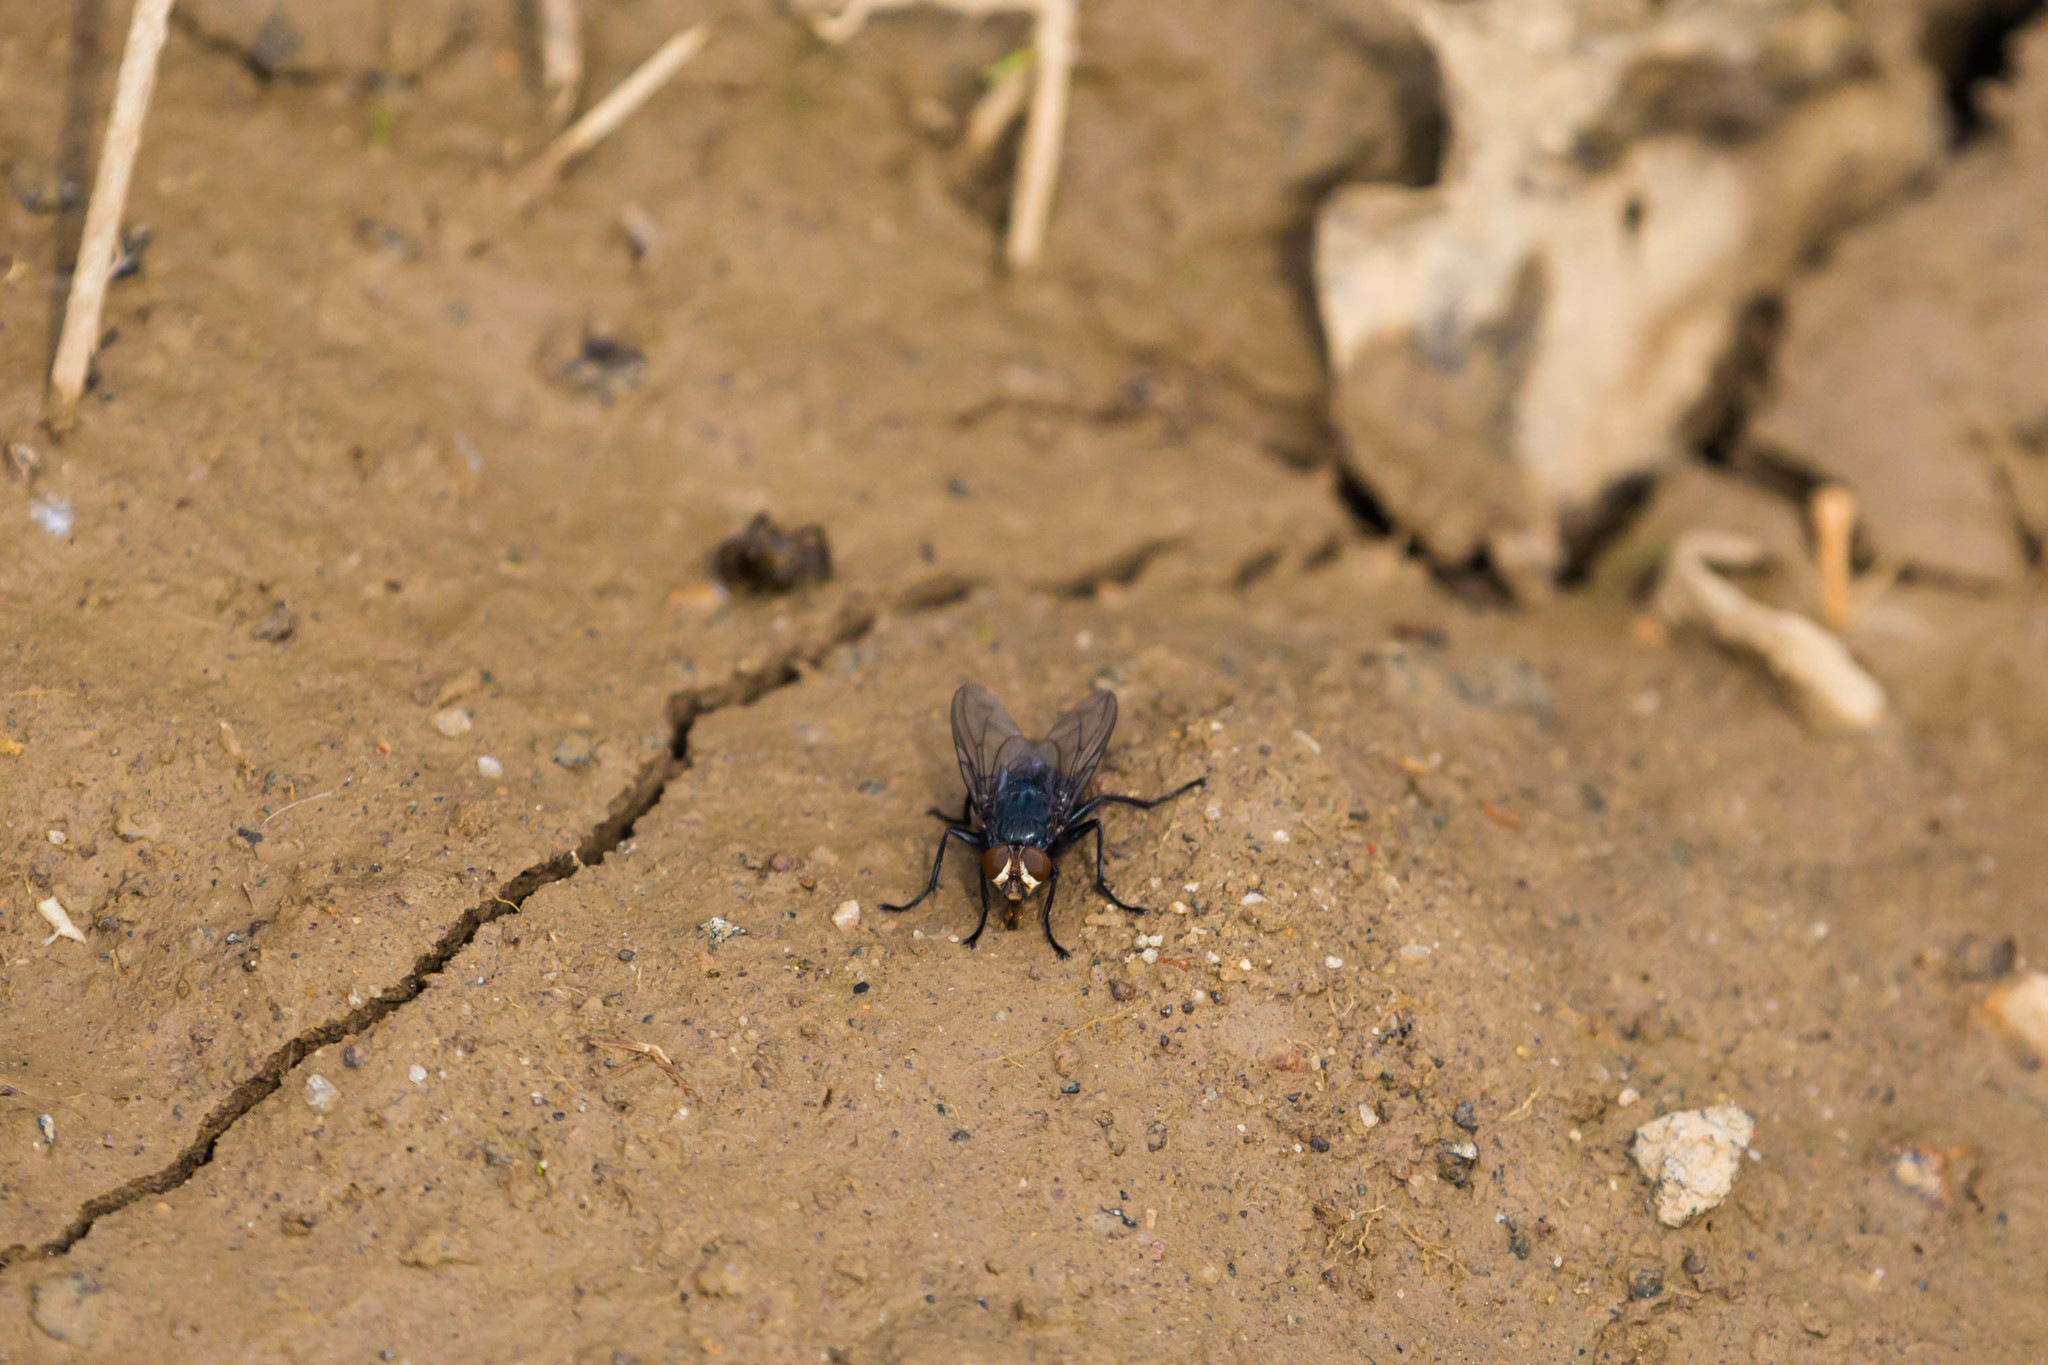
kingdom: Animalia
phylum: Arthropoda
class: Insecta
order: Diptera
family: Calliphoridae
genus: Cynomya
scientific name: Cynomya cadaverina
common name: Shiny blue bottle fly
